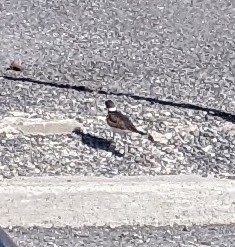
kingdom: Animalia
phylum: Chordata
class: Aves
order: Charadriiformes
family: Charadriidae
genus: Charadrius
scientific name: Charadrius vociferus
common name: Killdeer
